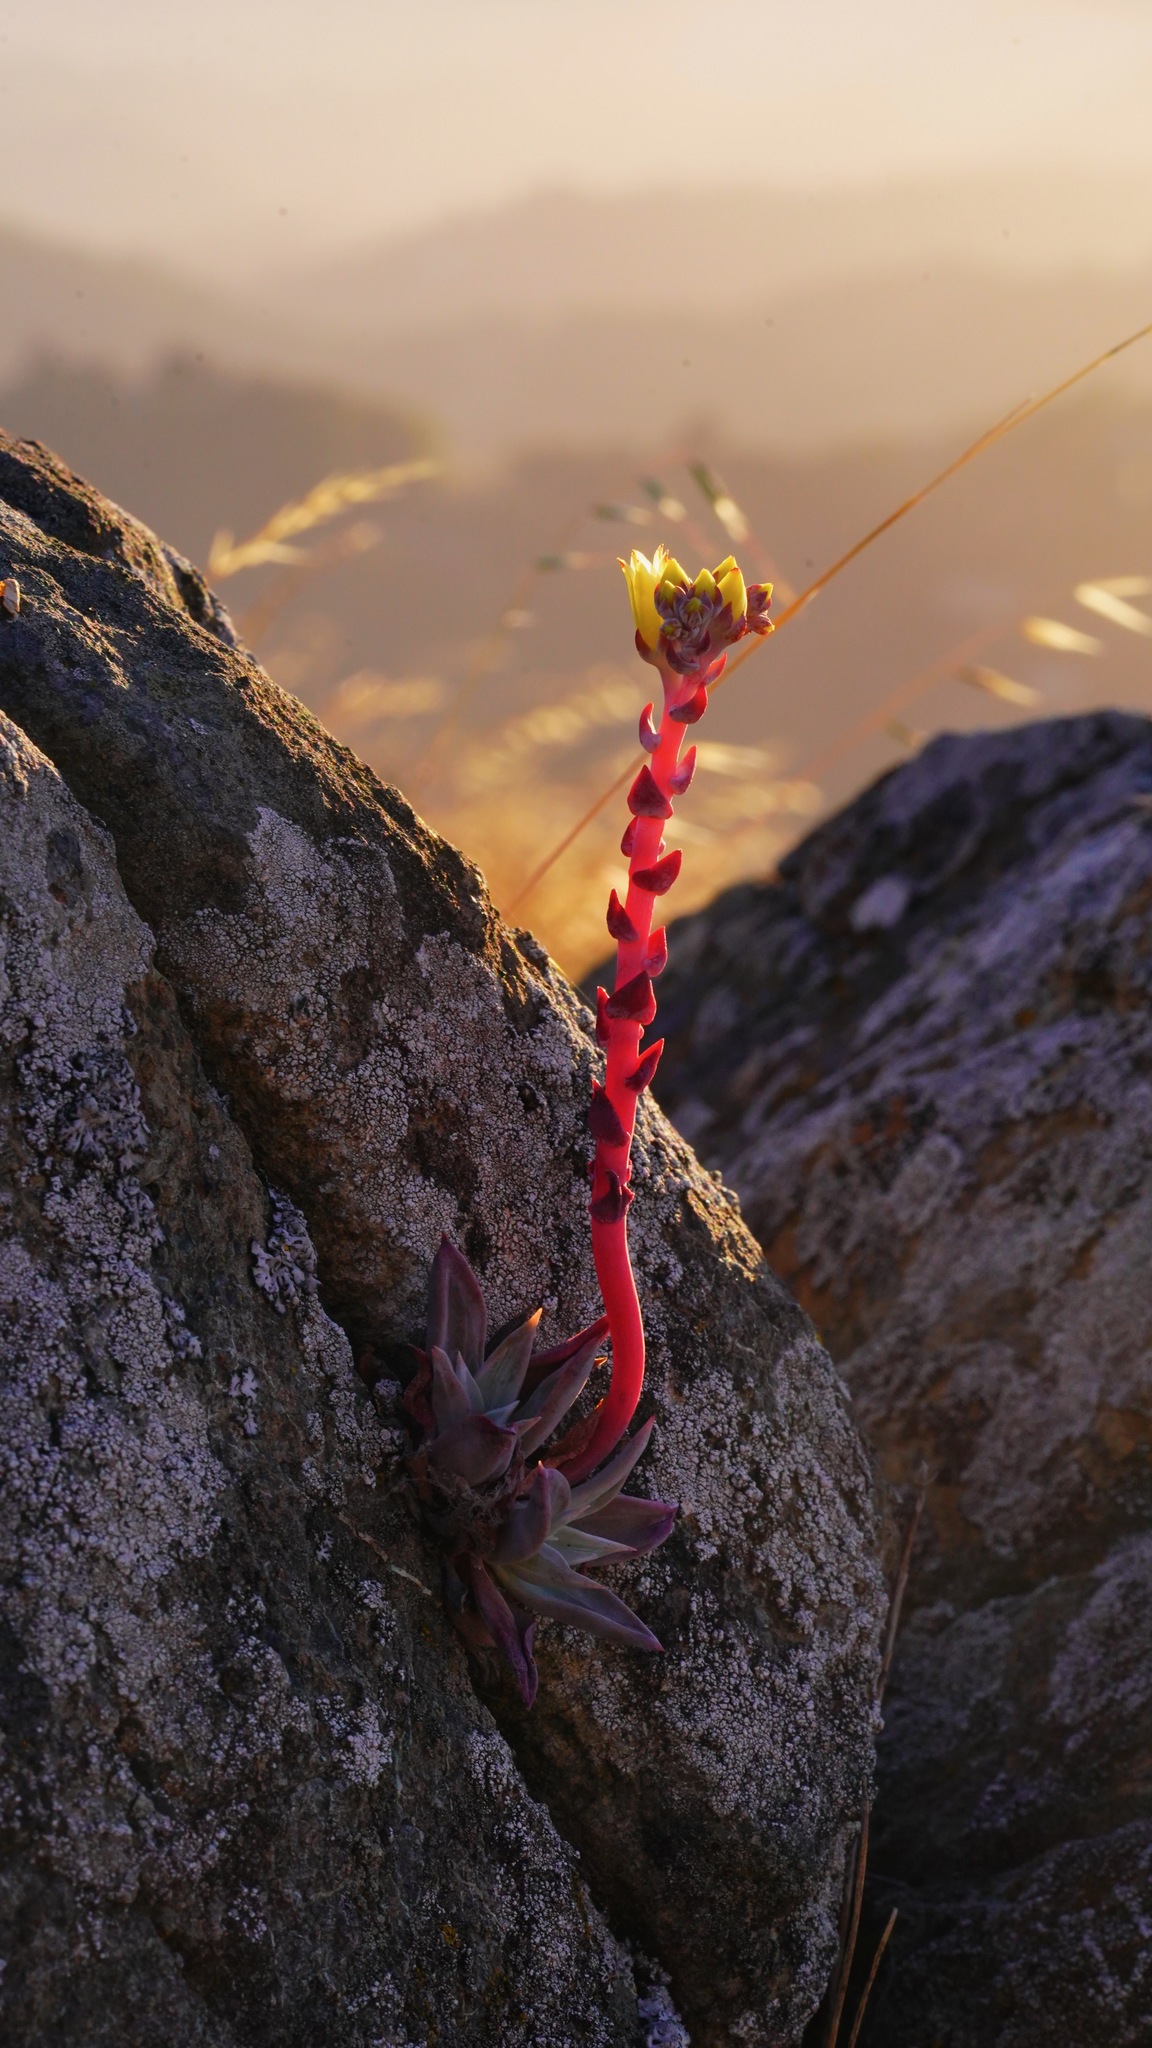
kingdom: Plantae
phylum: Tracheophyta
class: Magnoliopsida
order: Saxifragales
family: Crassulaceae
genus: Dudleya
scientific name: Dudleya farinosa
